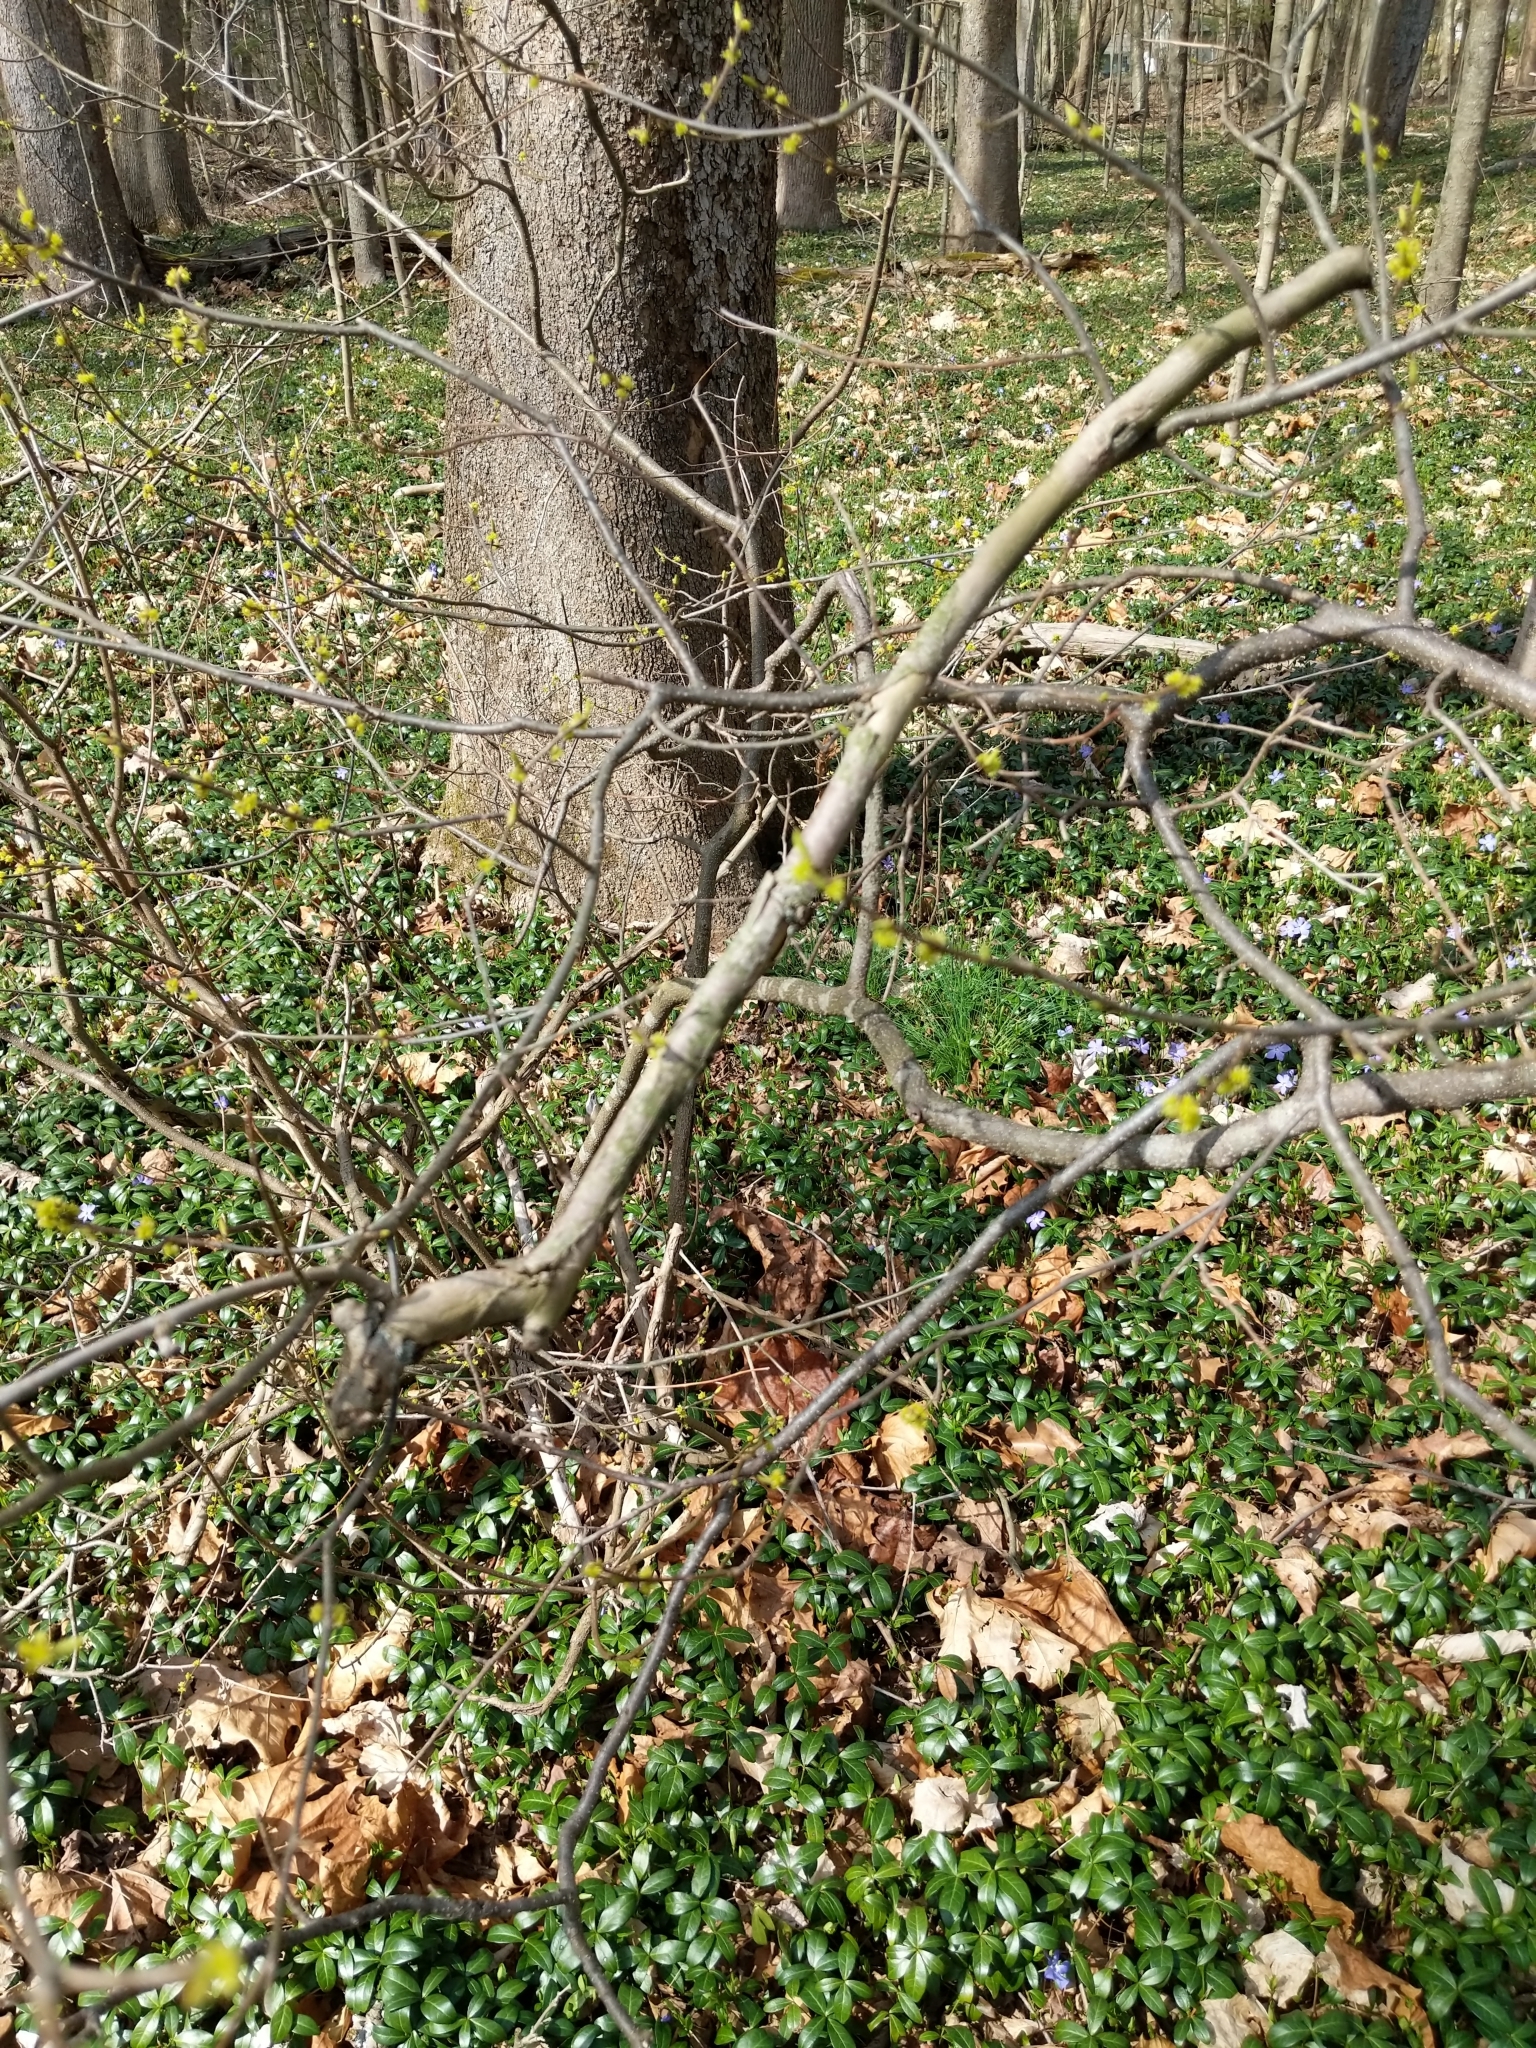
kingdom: Plantae
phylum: Tracheophyta
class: Magnoliopsida
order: Laurales
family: Lauraceae
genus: Lindera
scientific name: Lindera benzoin
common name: Spicebush
